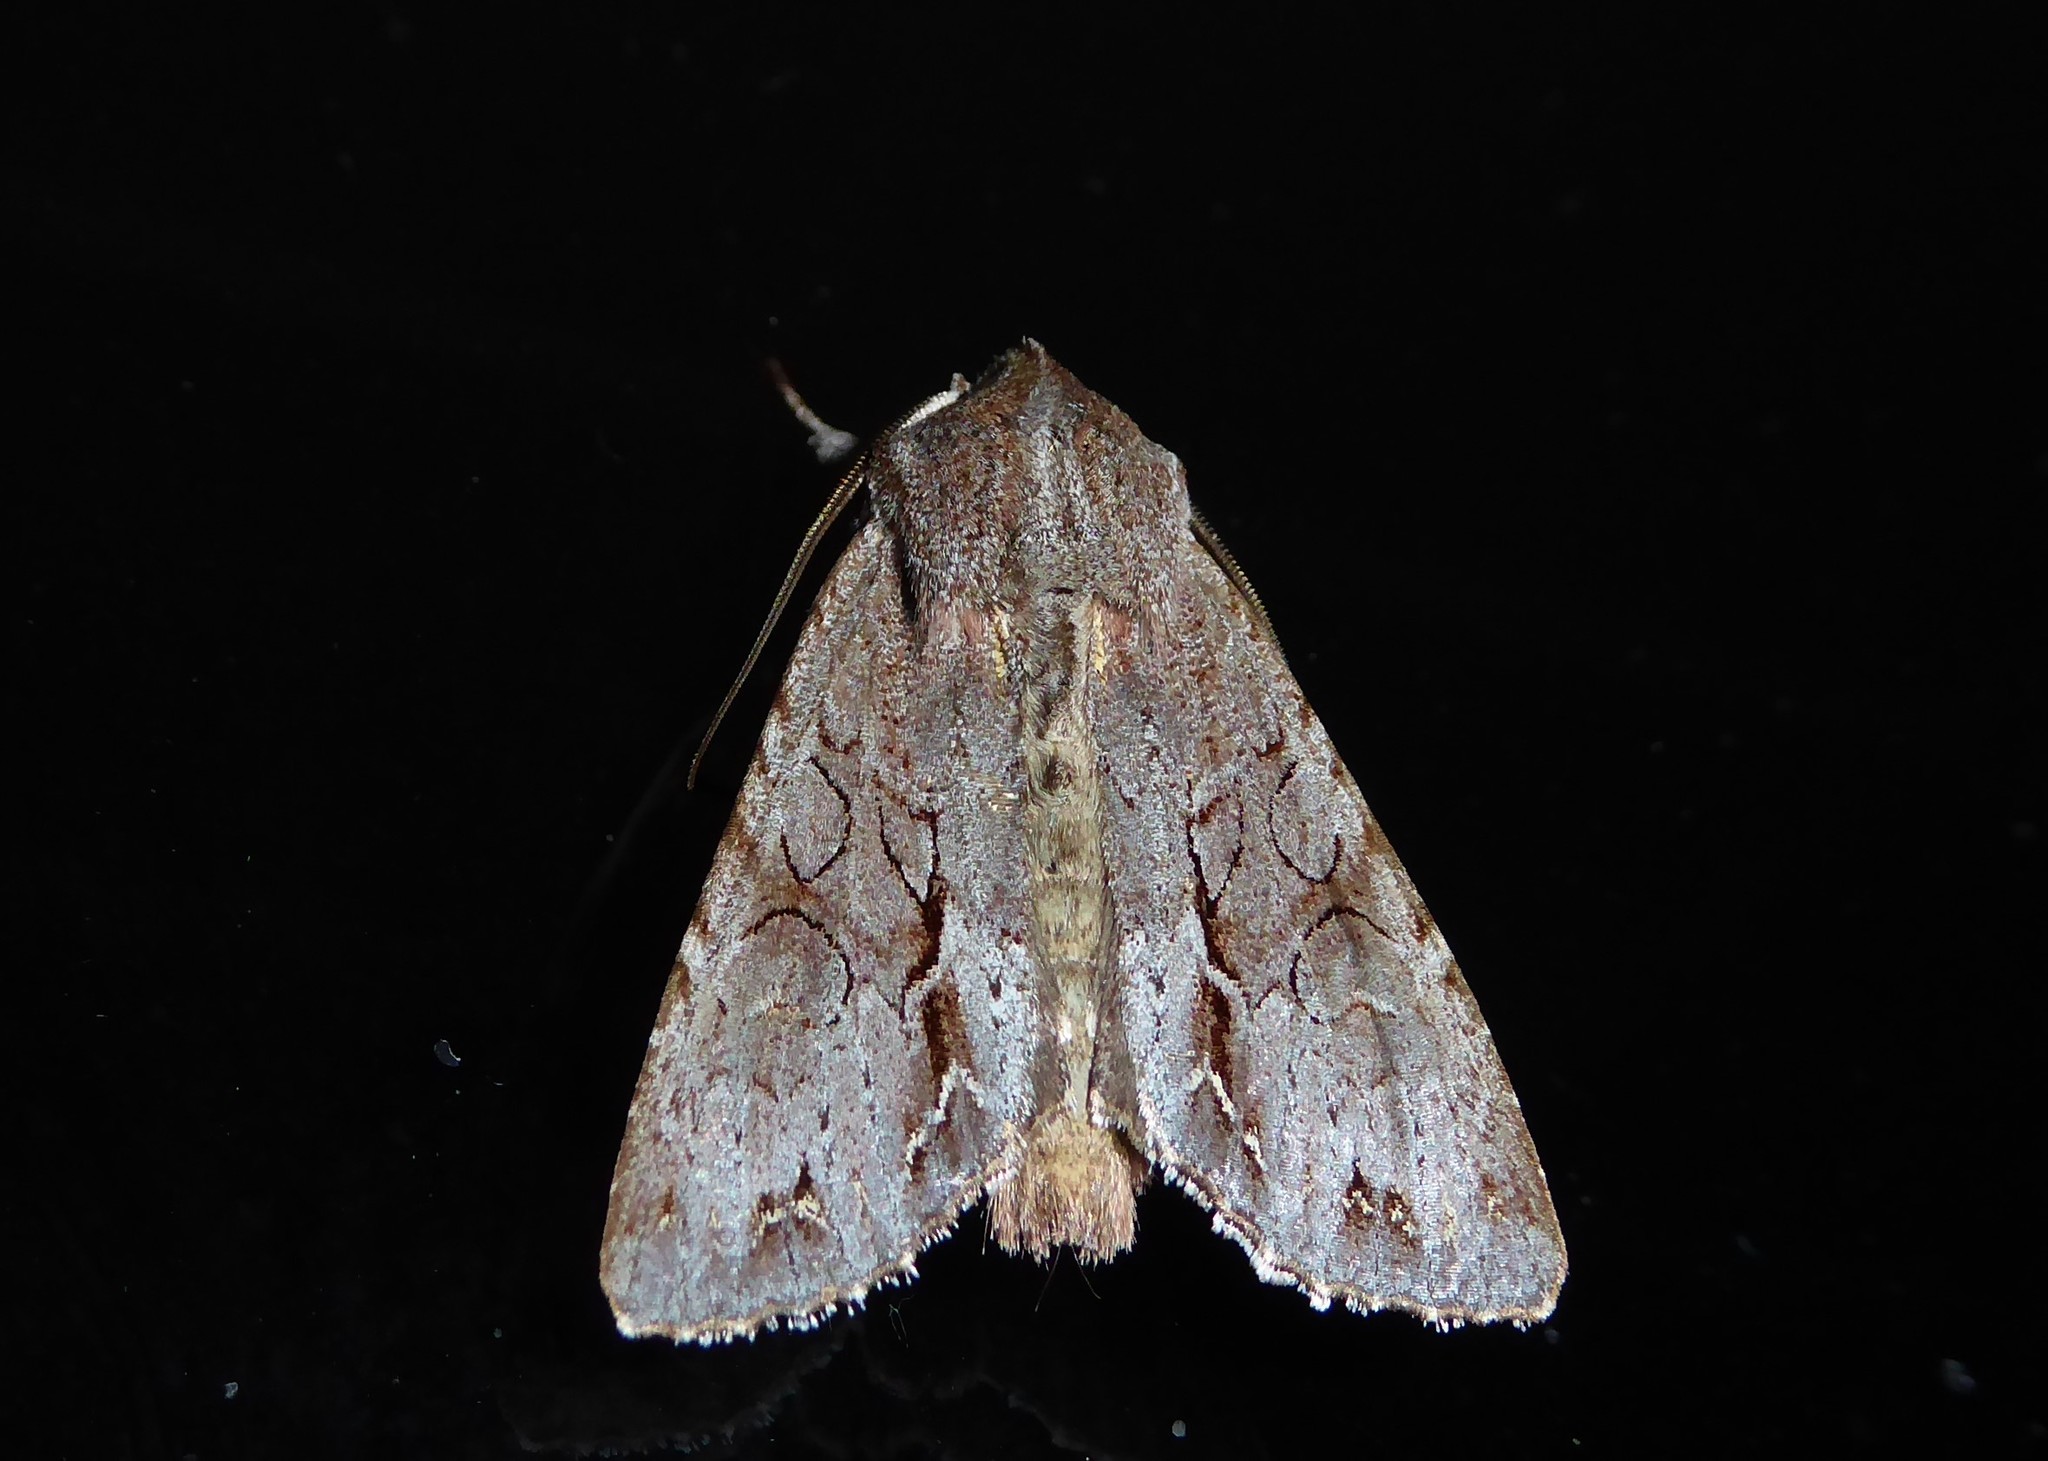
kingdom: Animalia
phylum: Arthropoda
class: Insecta
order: Lepidoptera
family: Noctuidae
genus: Ichneutica
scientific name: Ichneutica
